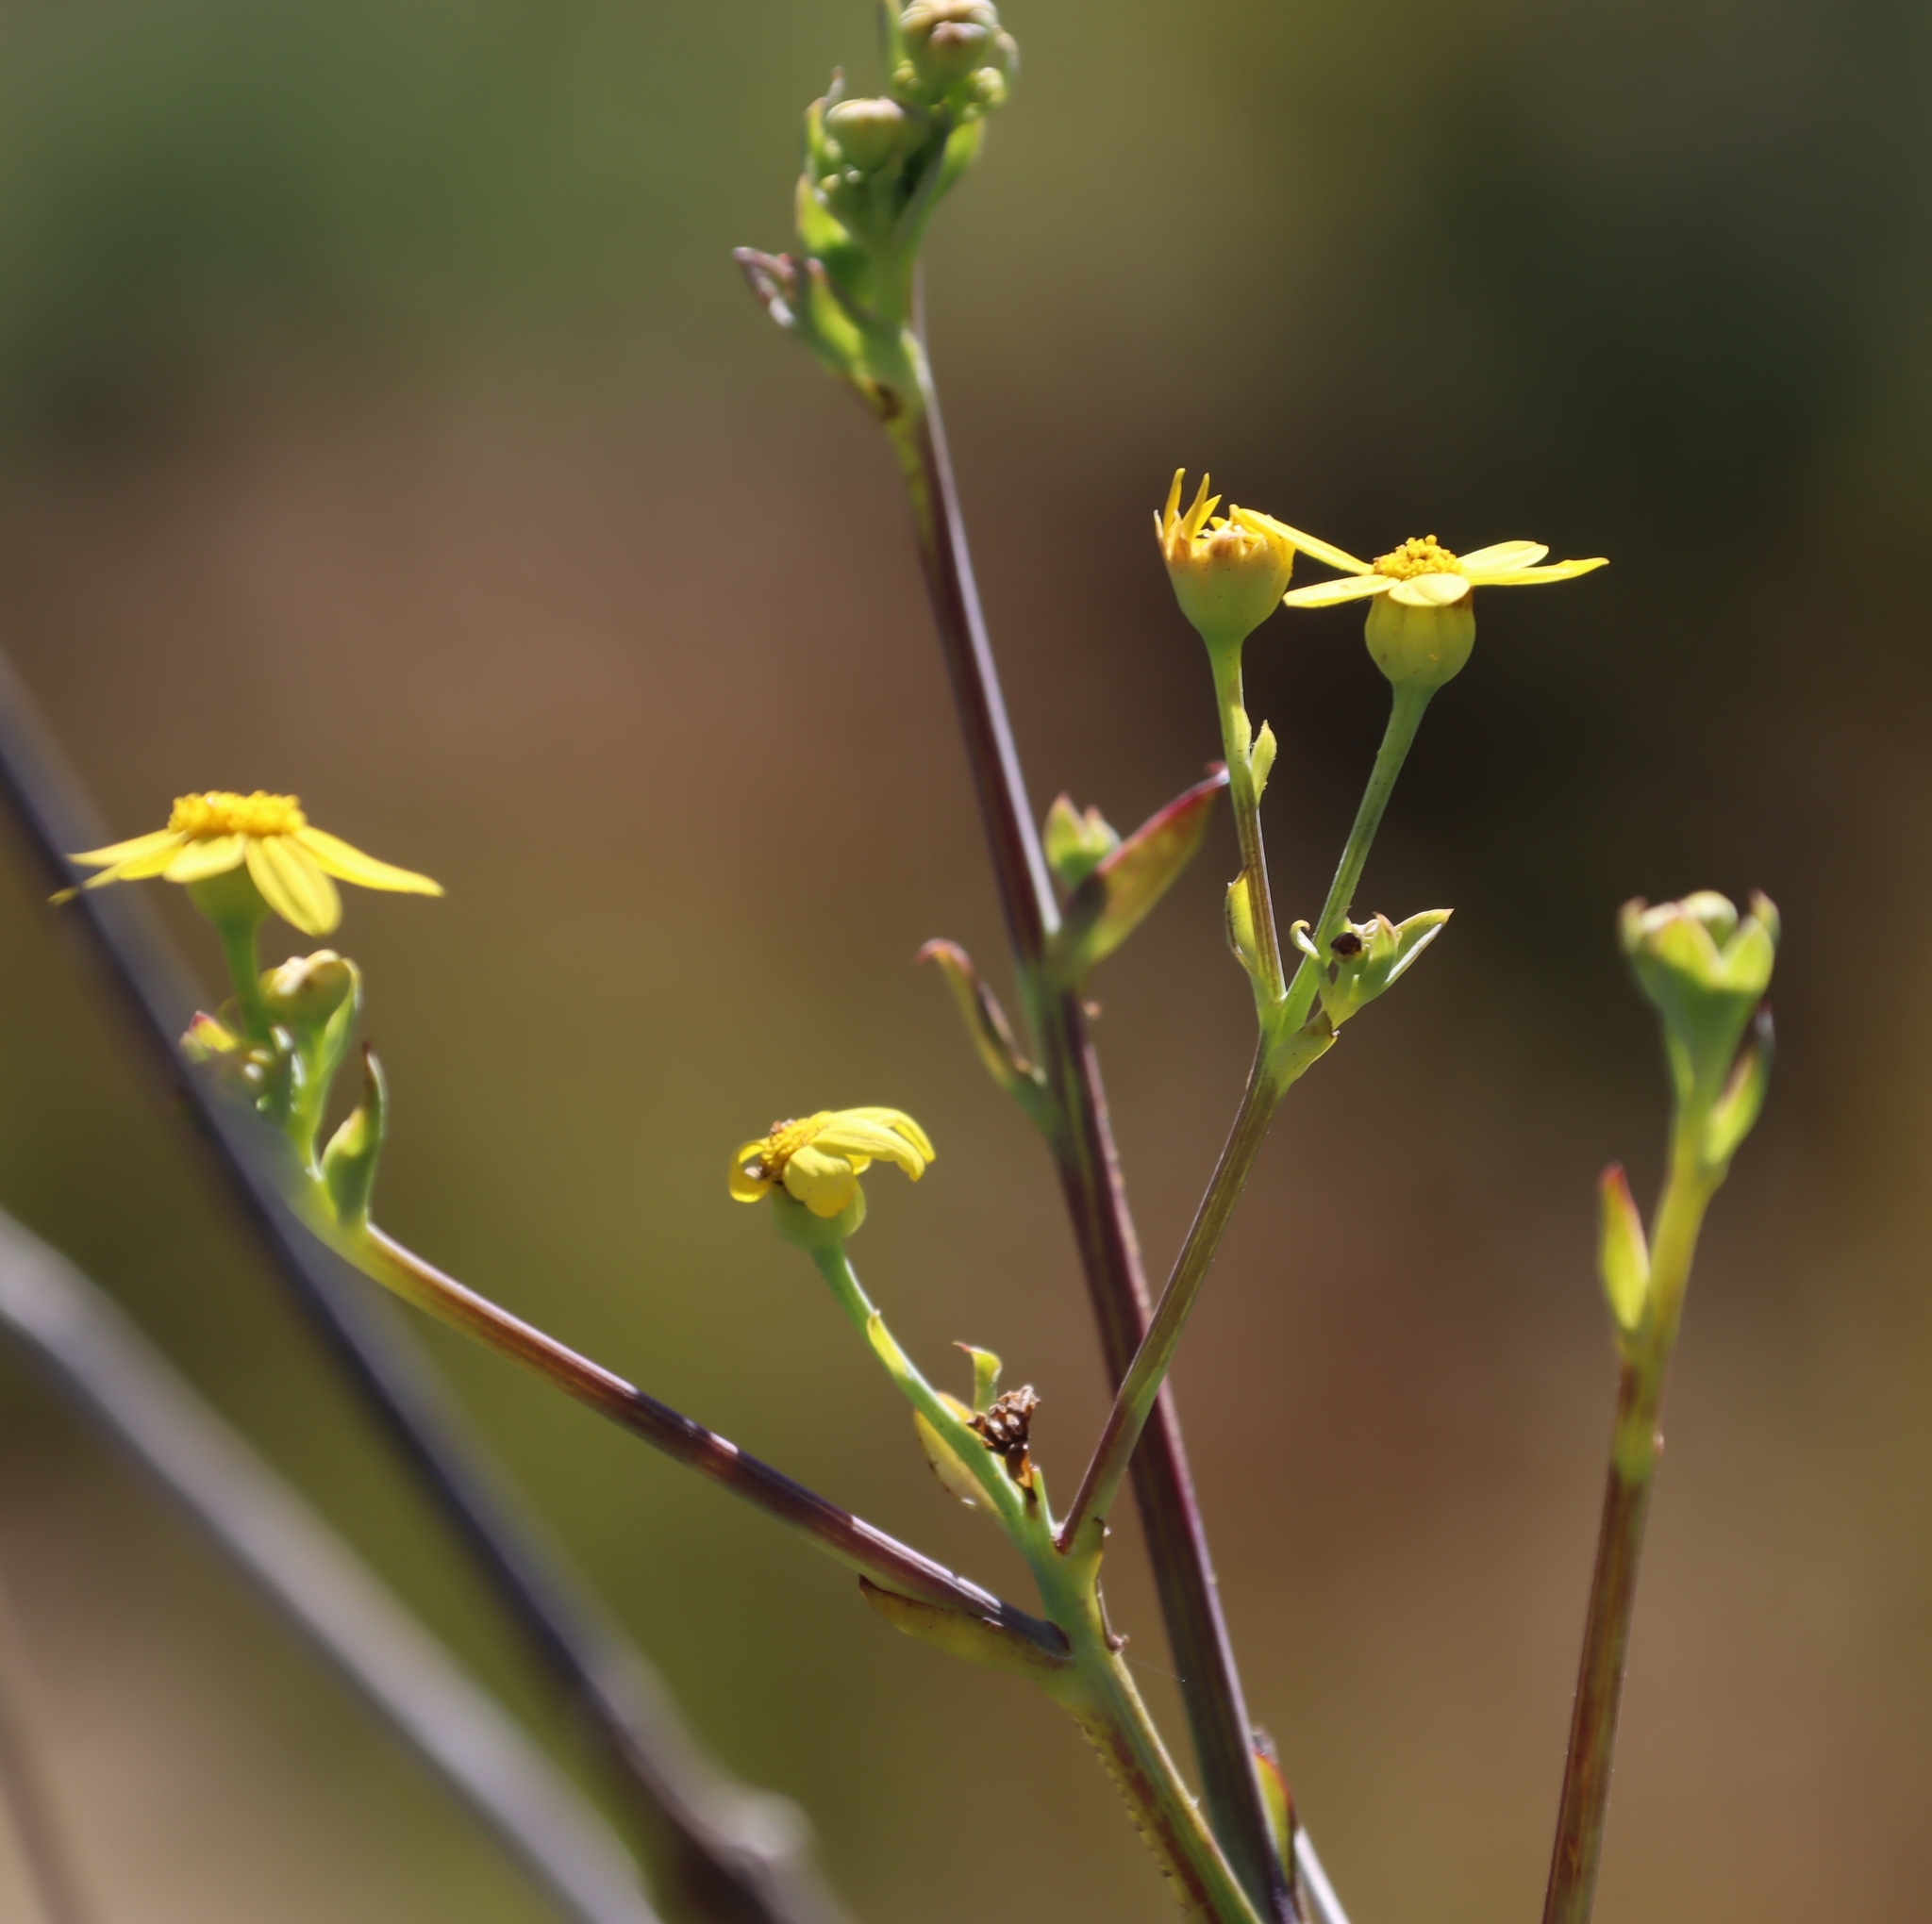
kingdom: Plantae
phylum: Tracheophyta
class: Magnoliopsida
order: Asterales
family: Asteraceae
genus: Othonna
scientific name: Othonna quinquedentata
